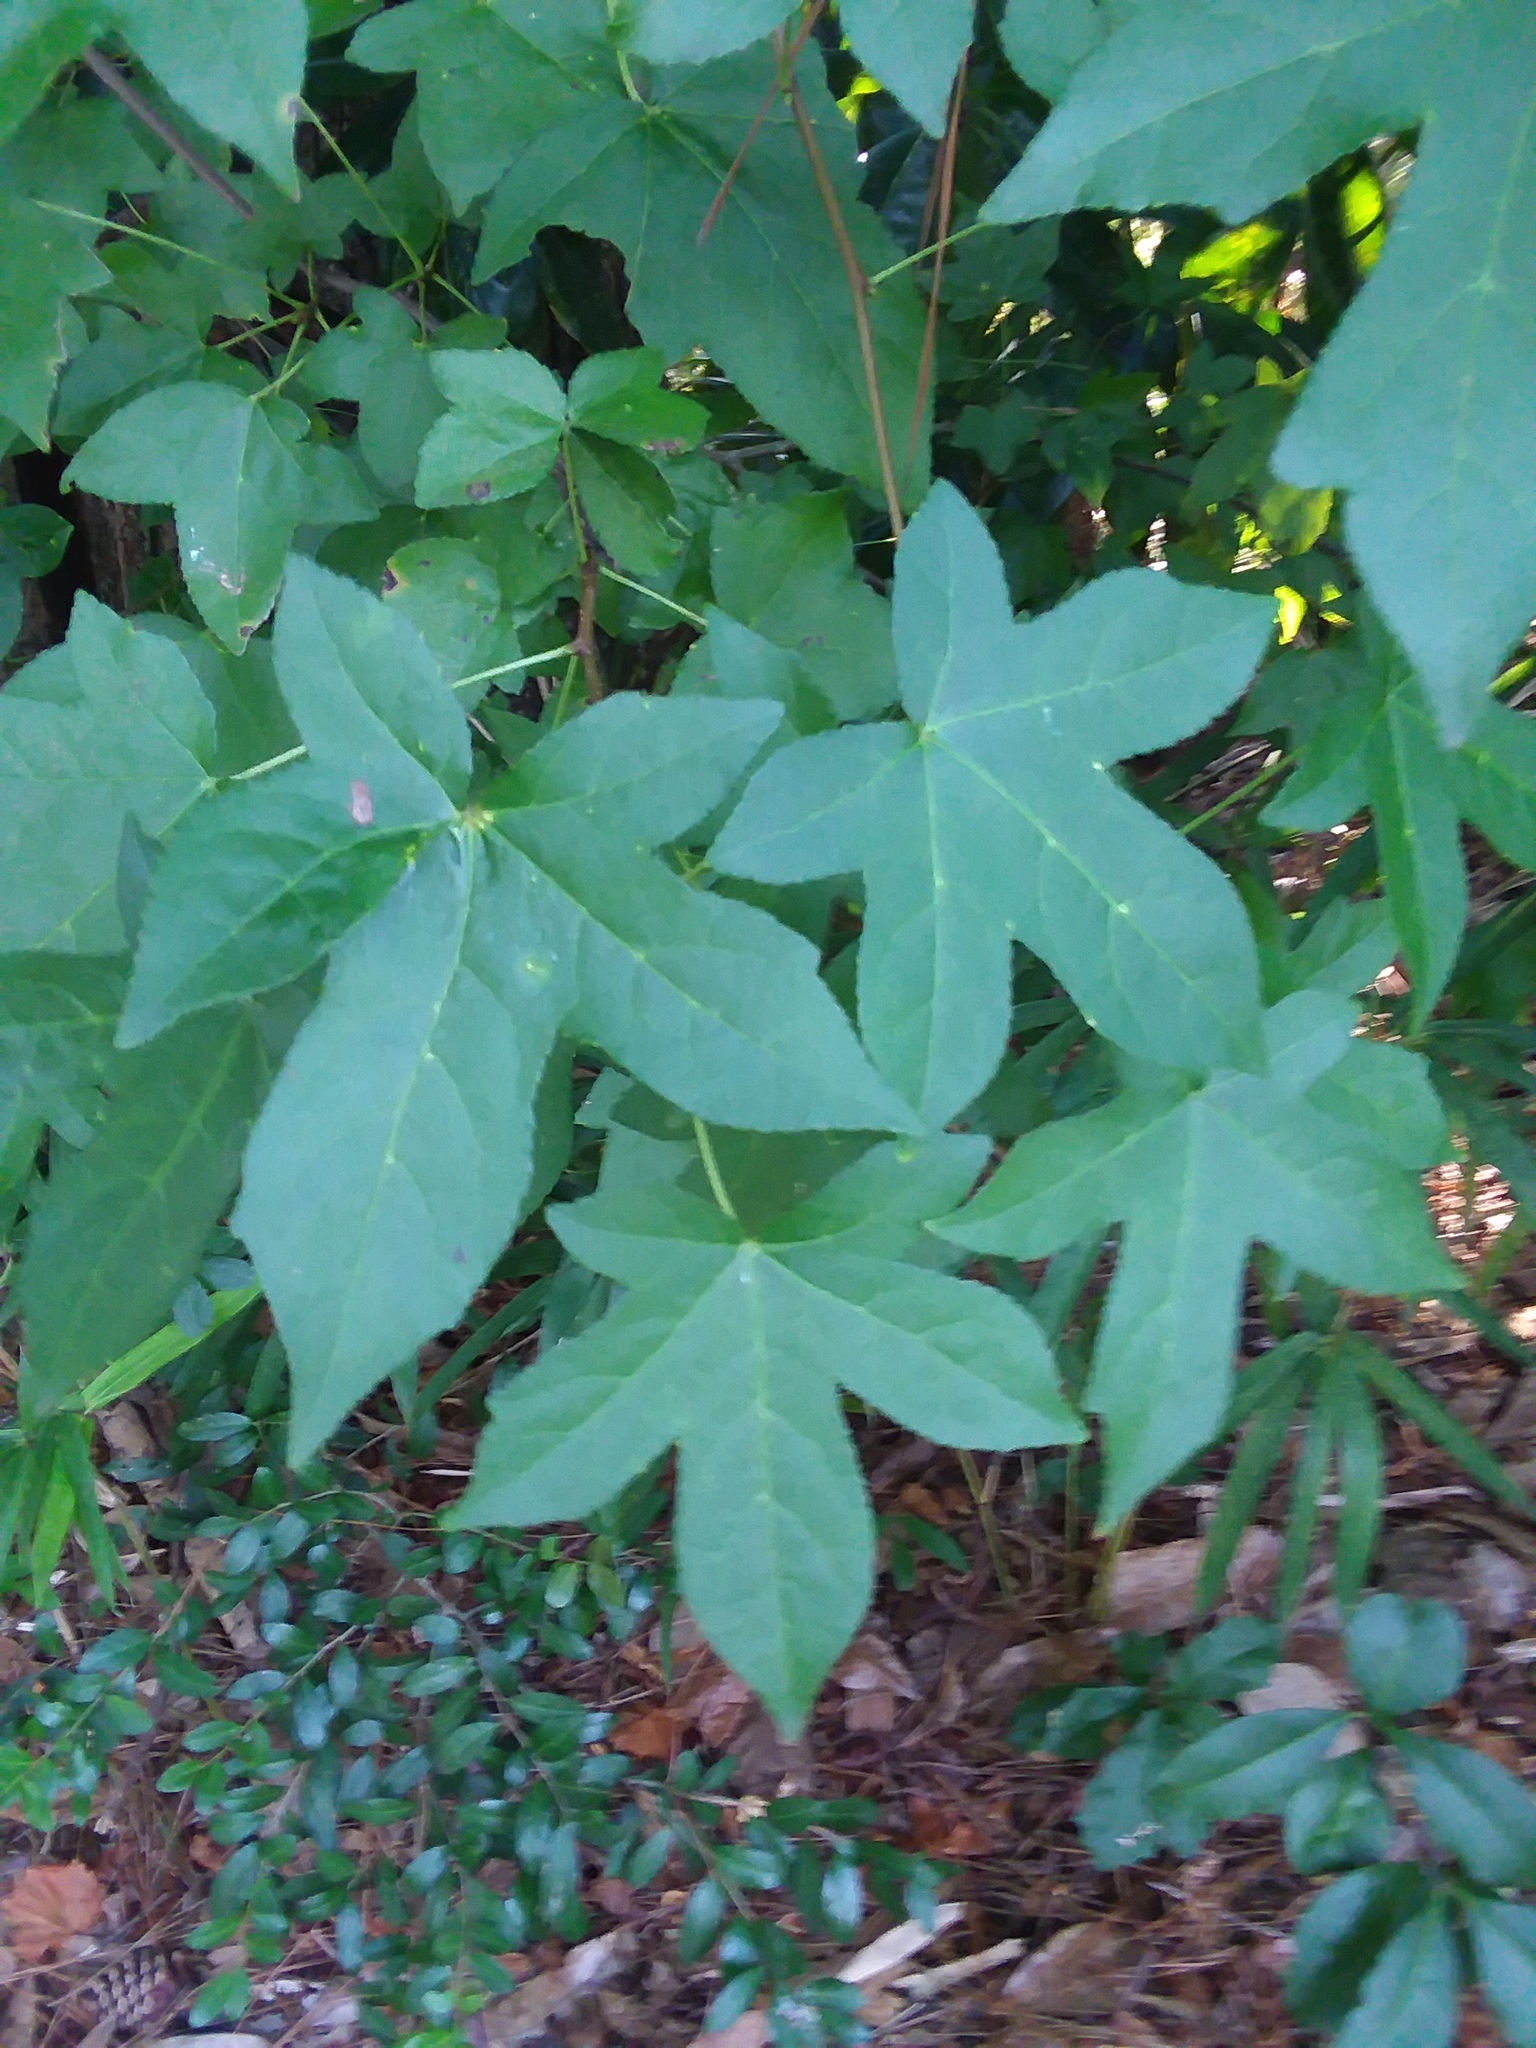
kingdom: Plantae
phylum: Tracheophyta
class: Magnoliopsida
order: Saxifragales
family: Altingiaceae
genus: Liquidambar
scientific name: Liquidambar styraciflua
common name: Sweet gum
